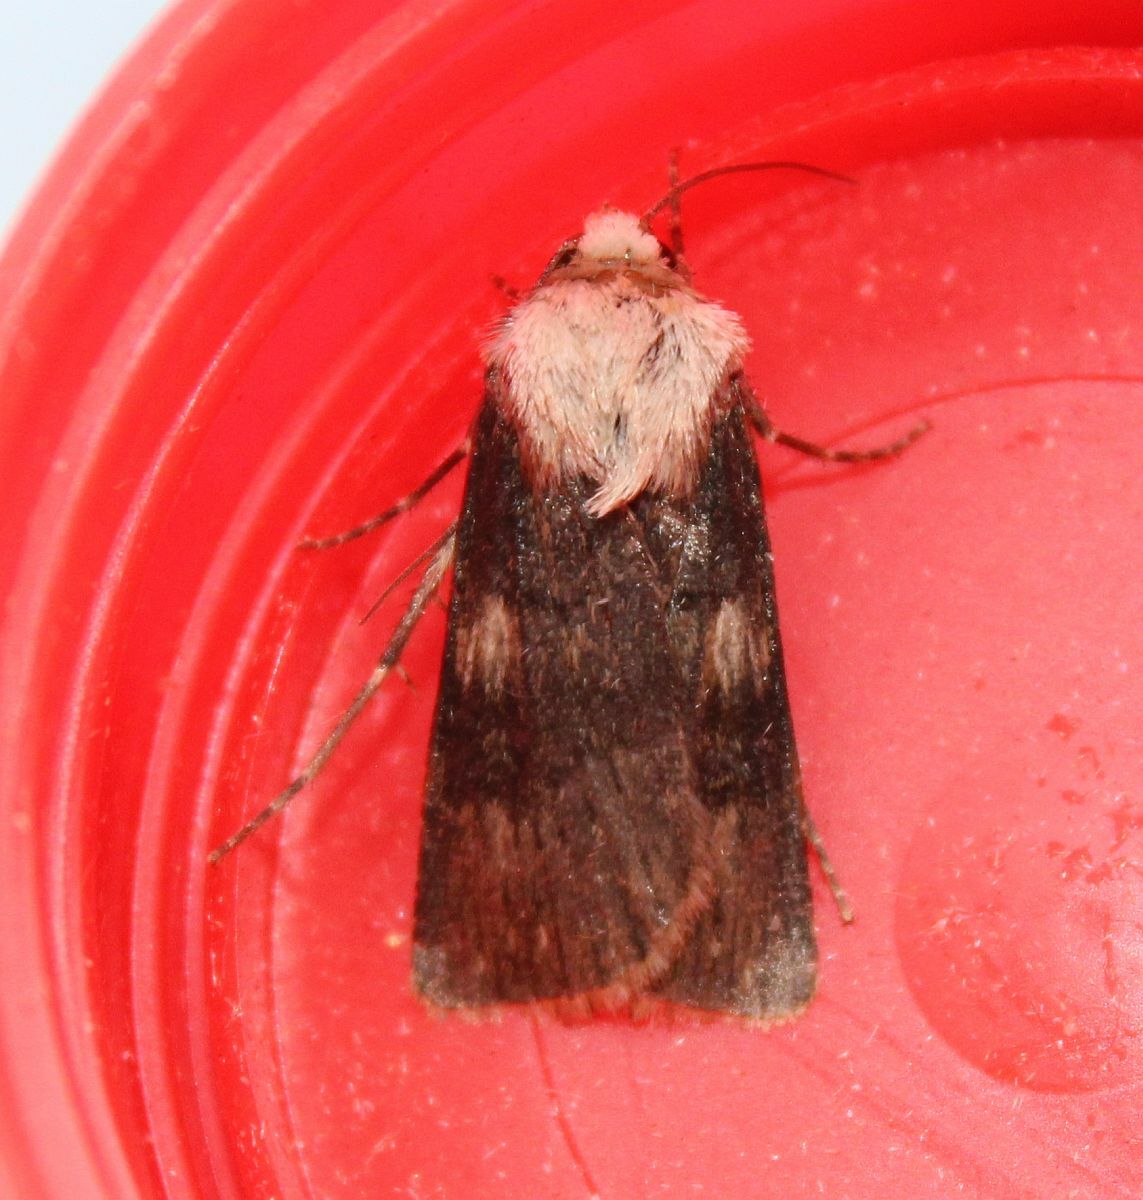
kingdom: Animalia
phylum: Arthropoda
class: Insecta
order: Lepidoptera
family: Noctuidae
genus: Agrotis
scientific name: Agrotis puta
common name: Shuttle-shaped dart
